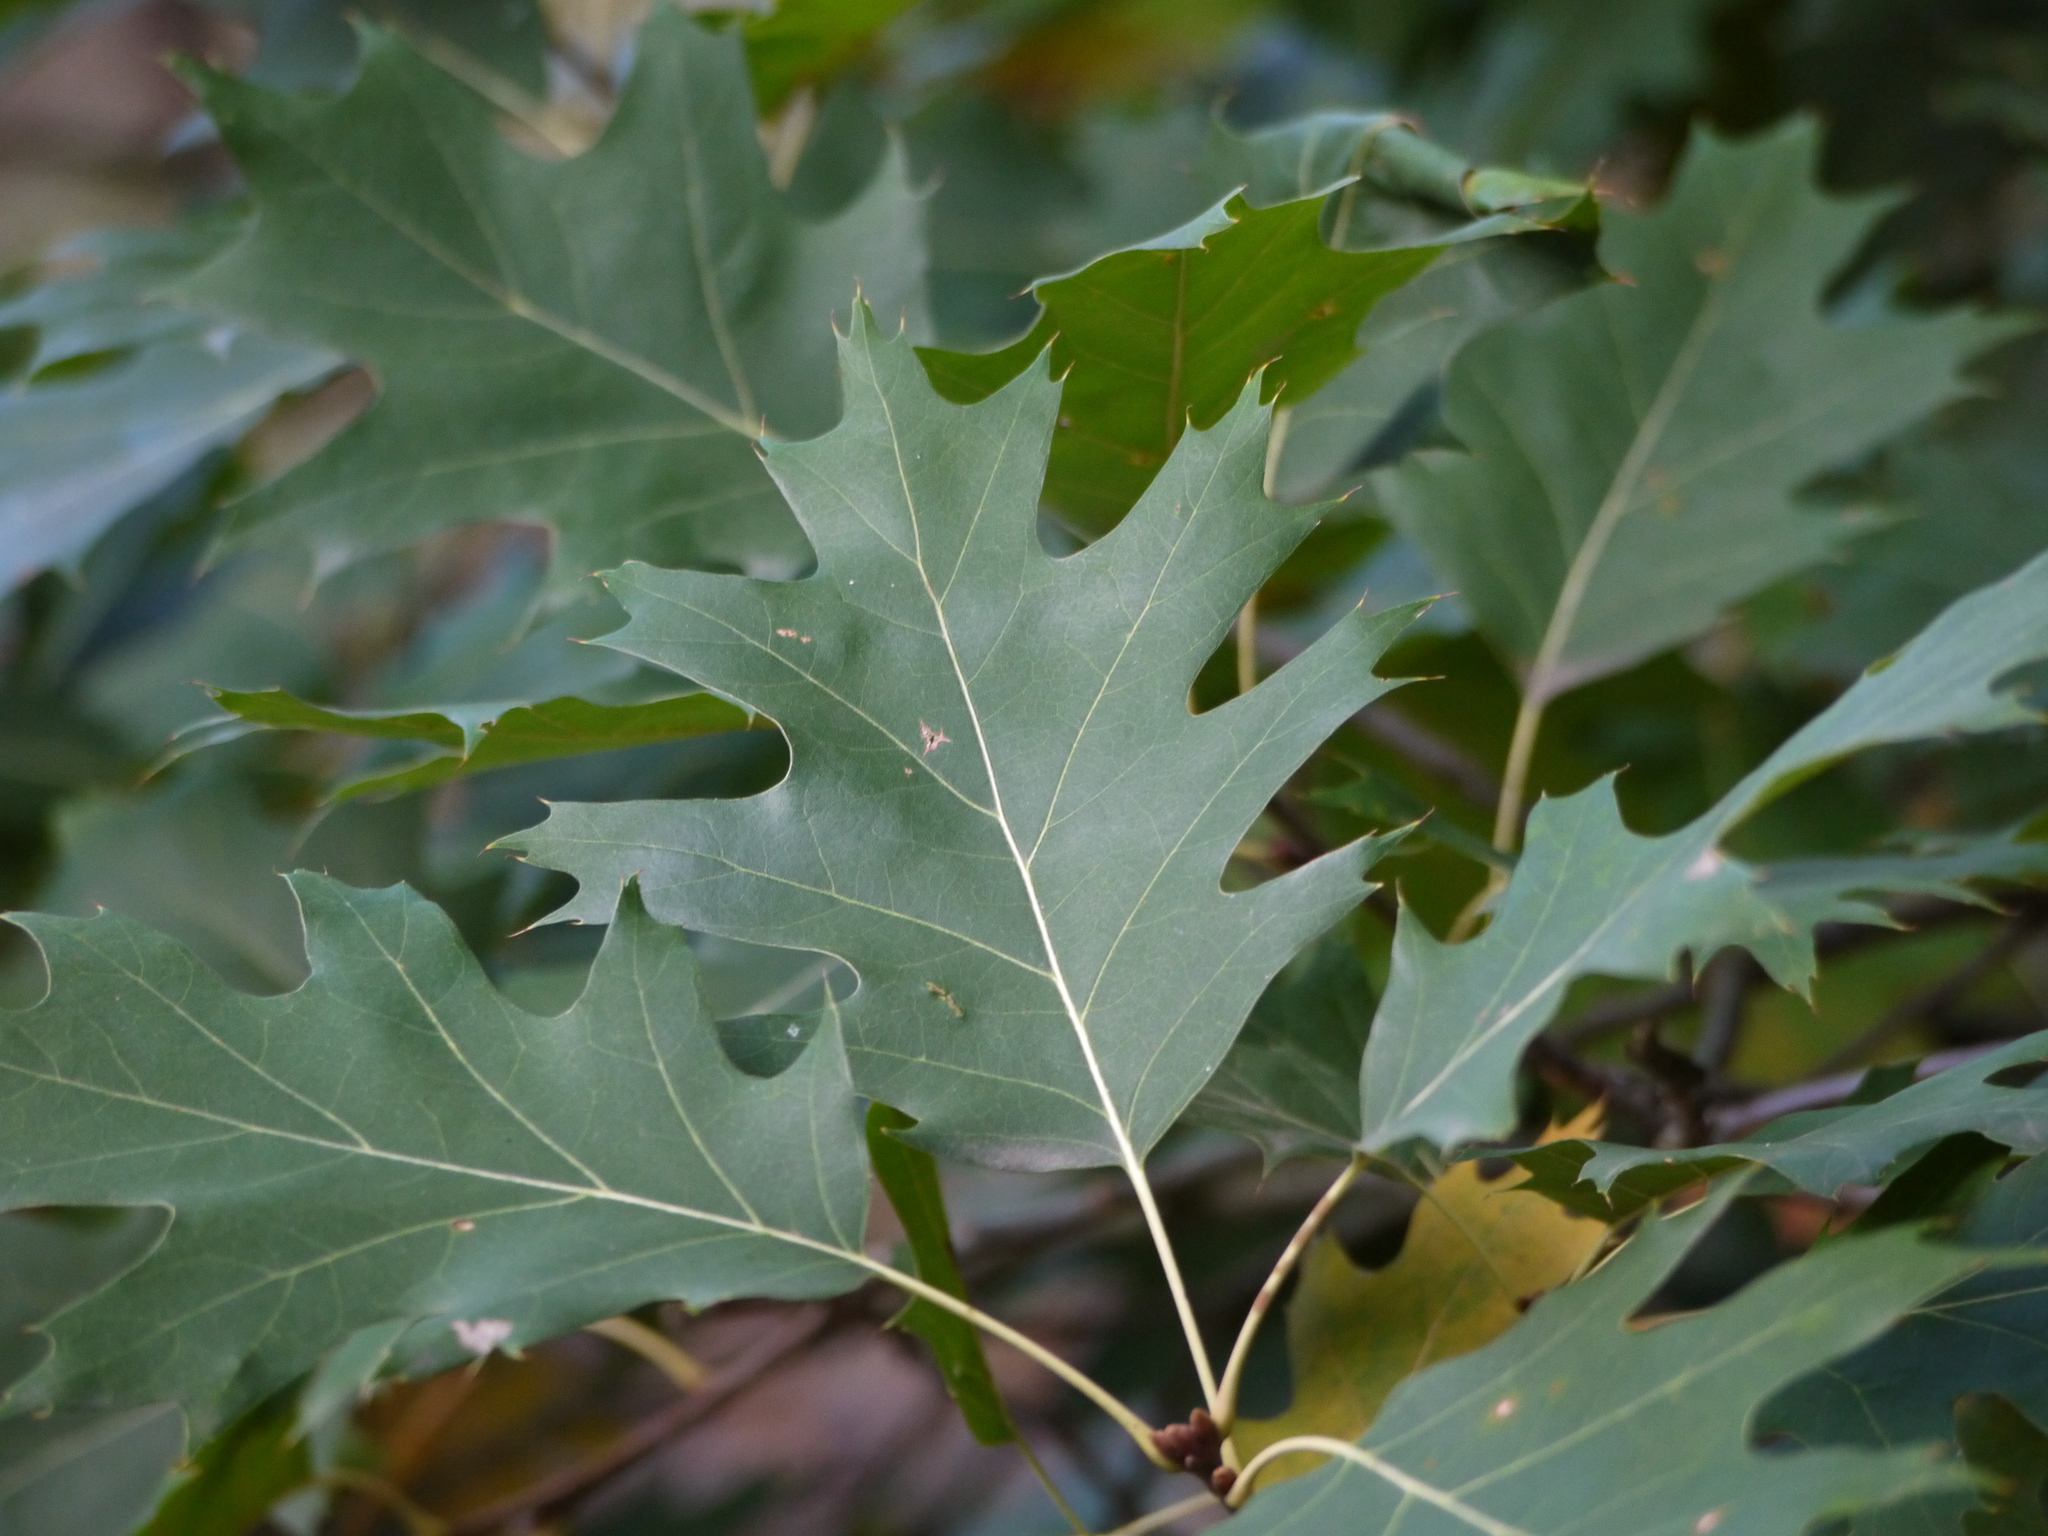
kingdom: Plantae
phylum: Tracheophyta
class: Magnoliopsida
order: Fagales
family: Fagaceae
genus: Quercus
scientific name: Quercus rubra
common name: Red oak
